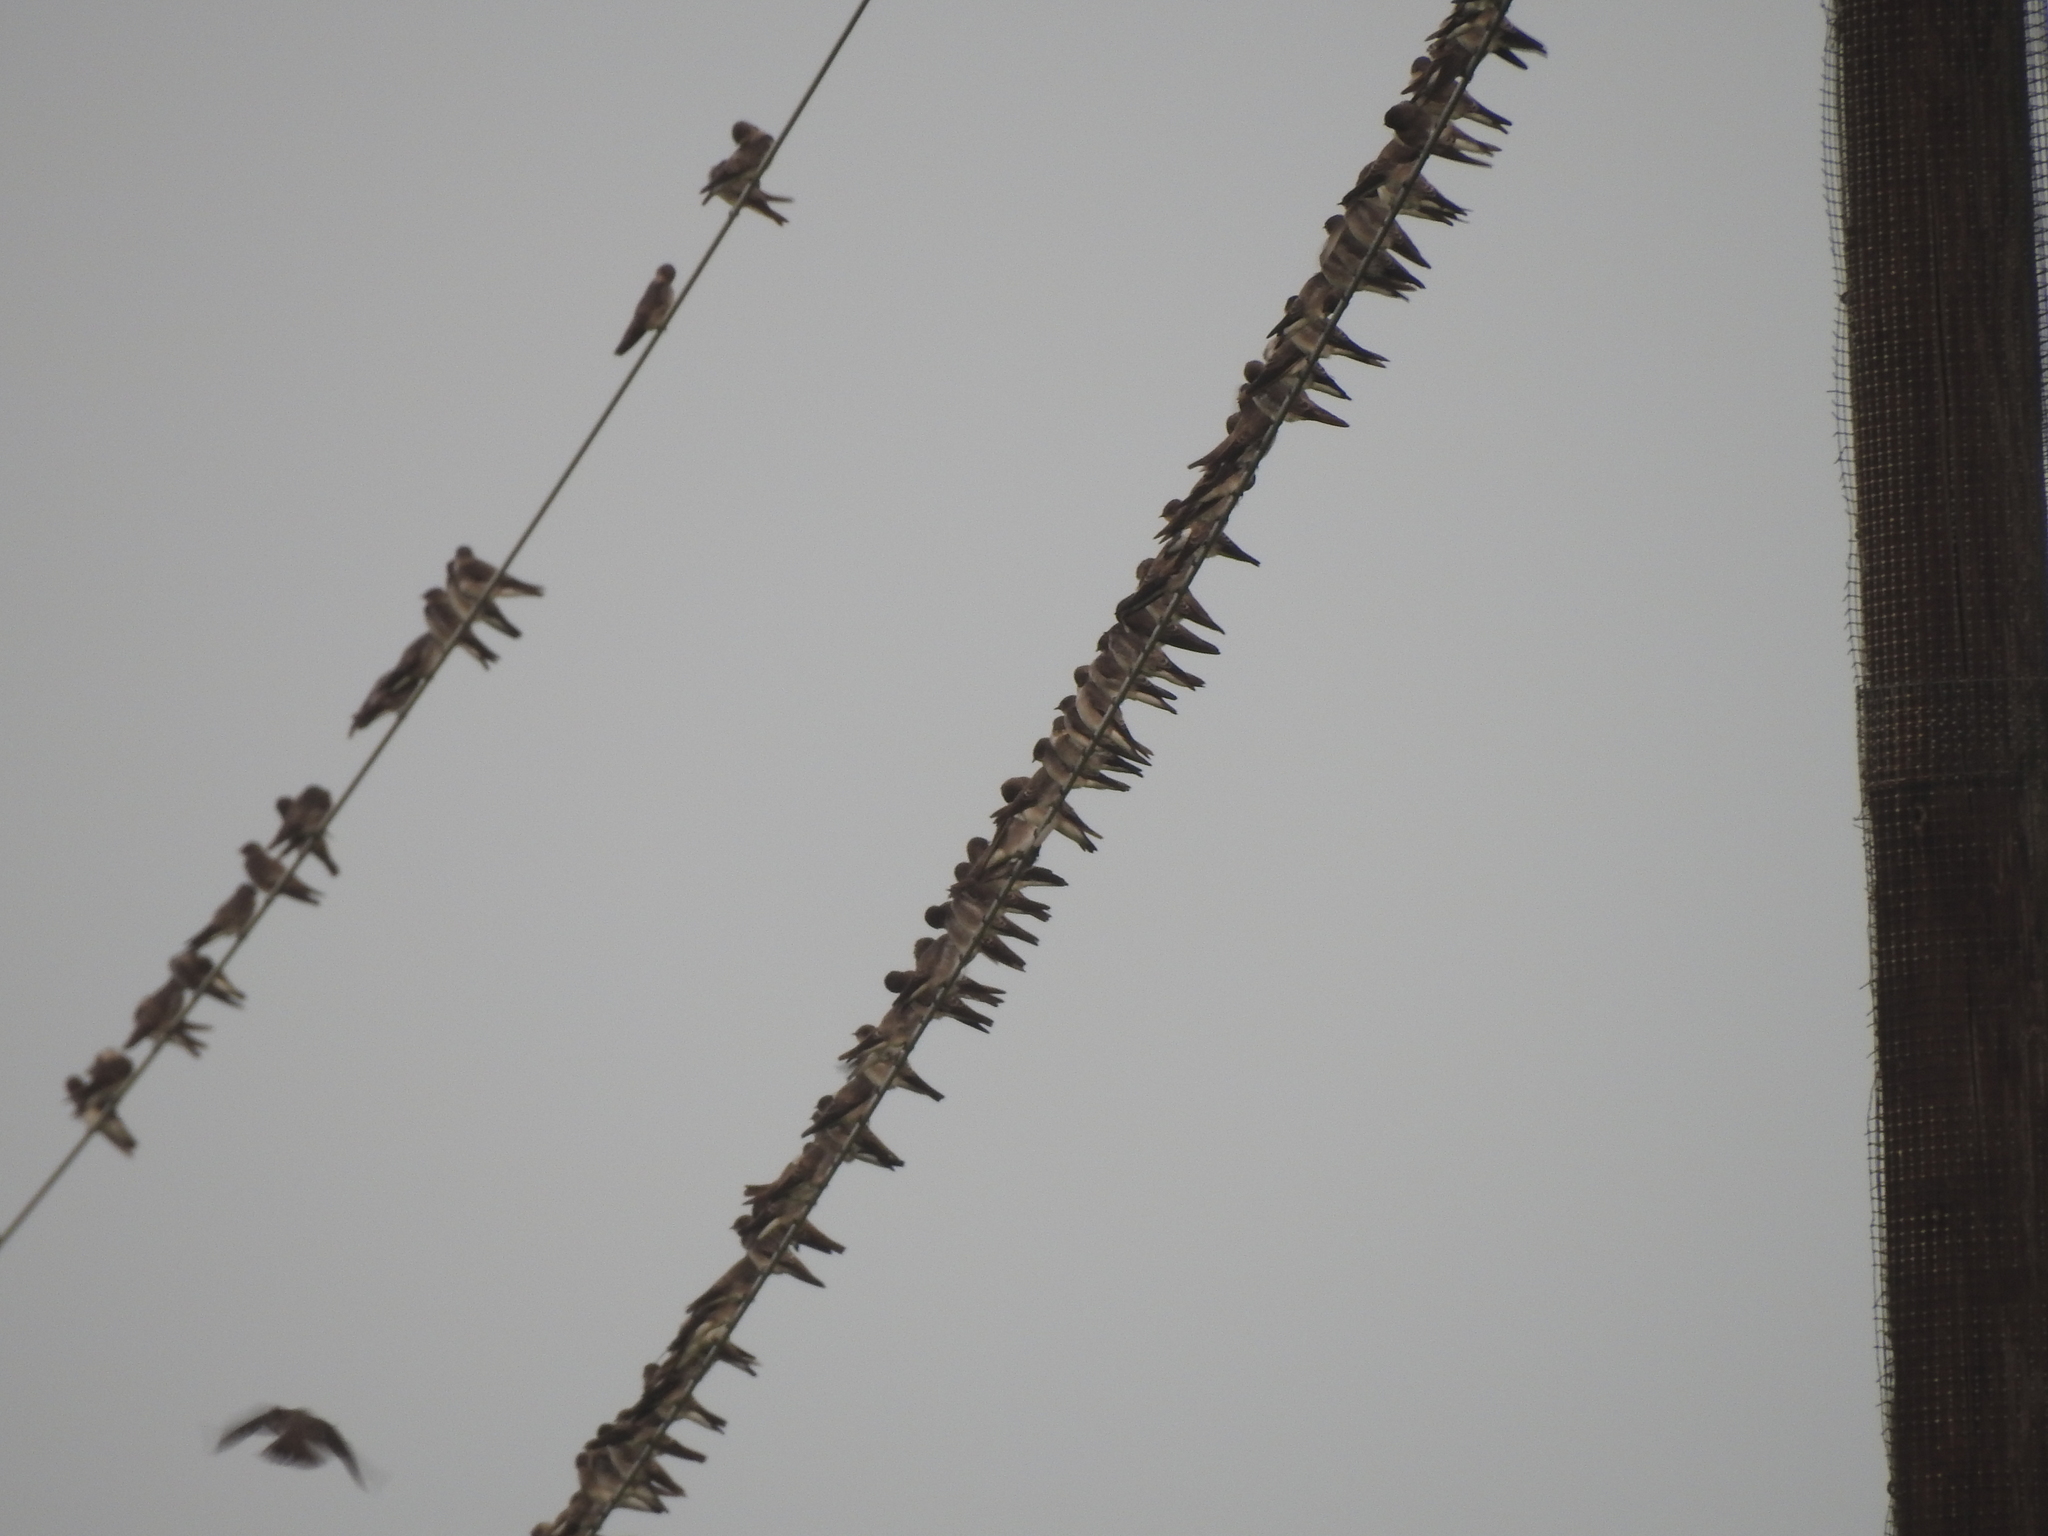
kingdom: Animalia
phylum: Chordata
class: Aves
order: Passeriformes
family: Hirundinidae
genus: Stelgidopteryx
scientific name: Stelgidopteryx serripennis
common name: Northern rough-winged swallow
